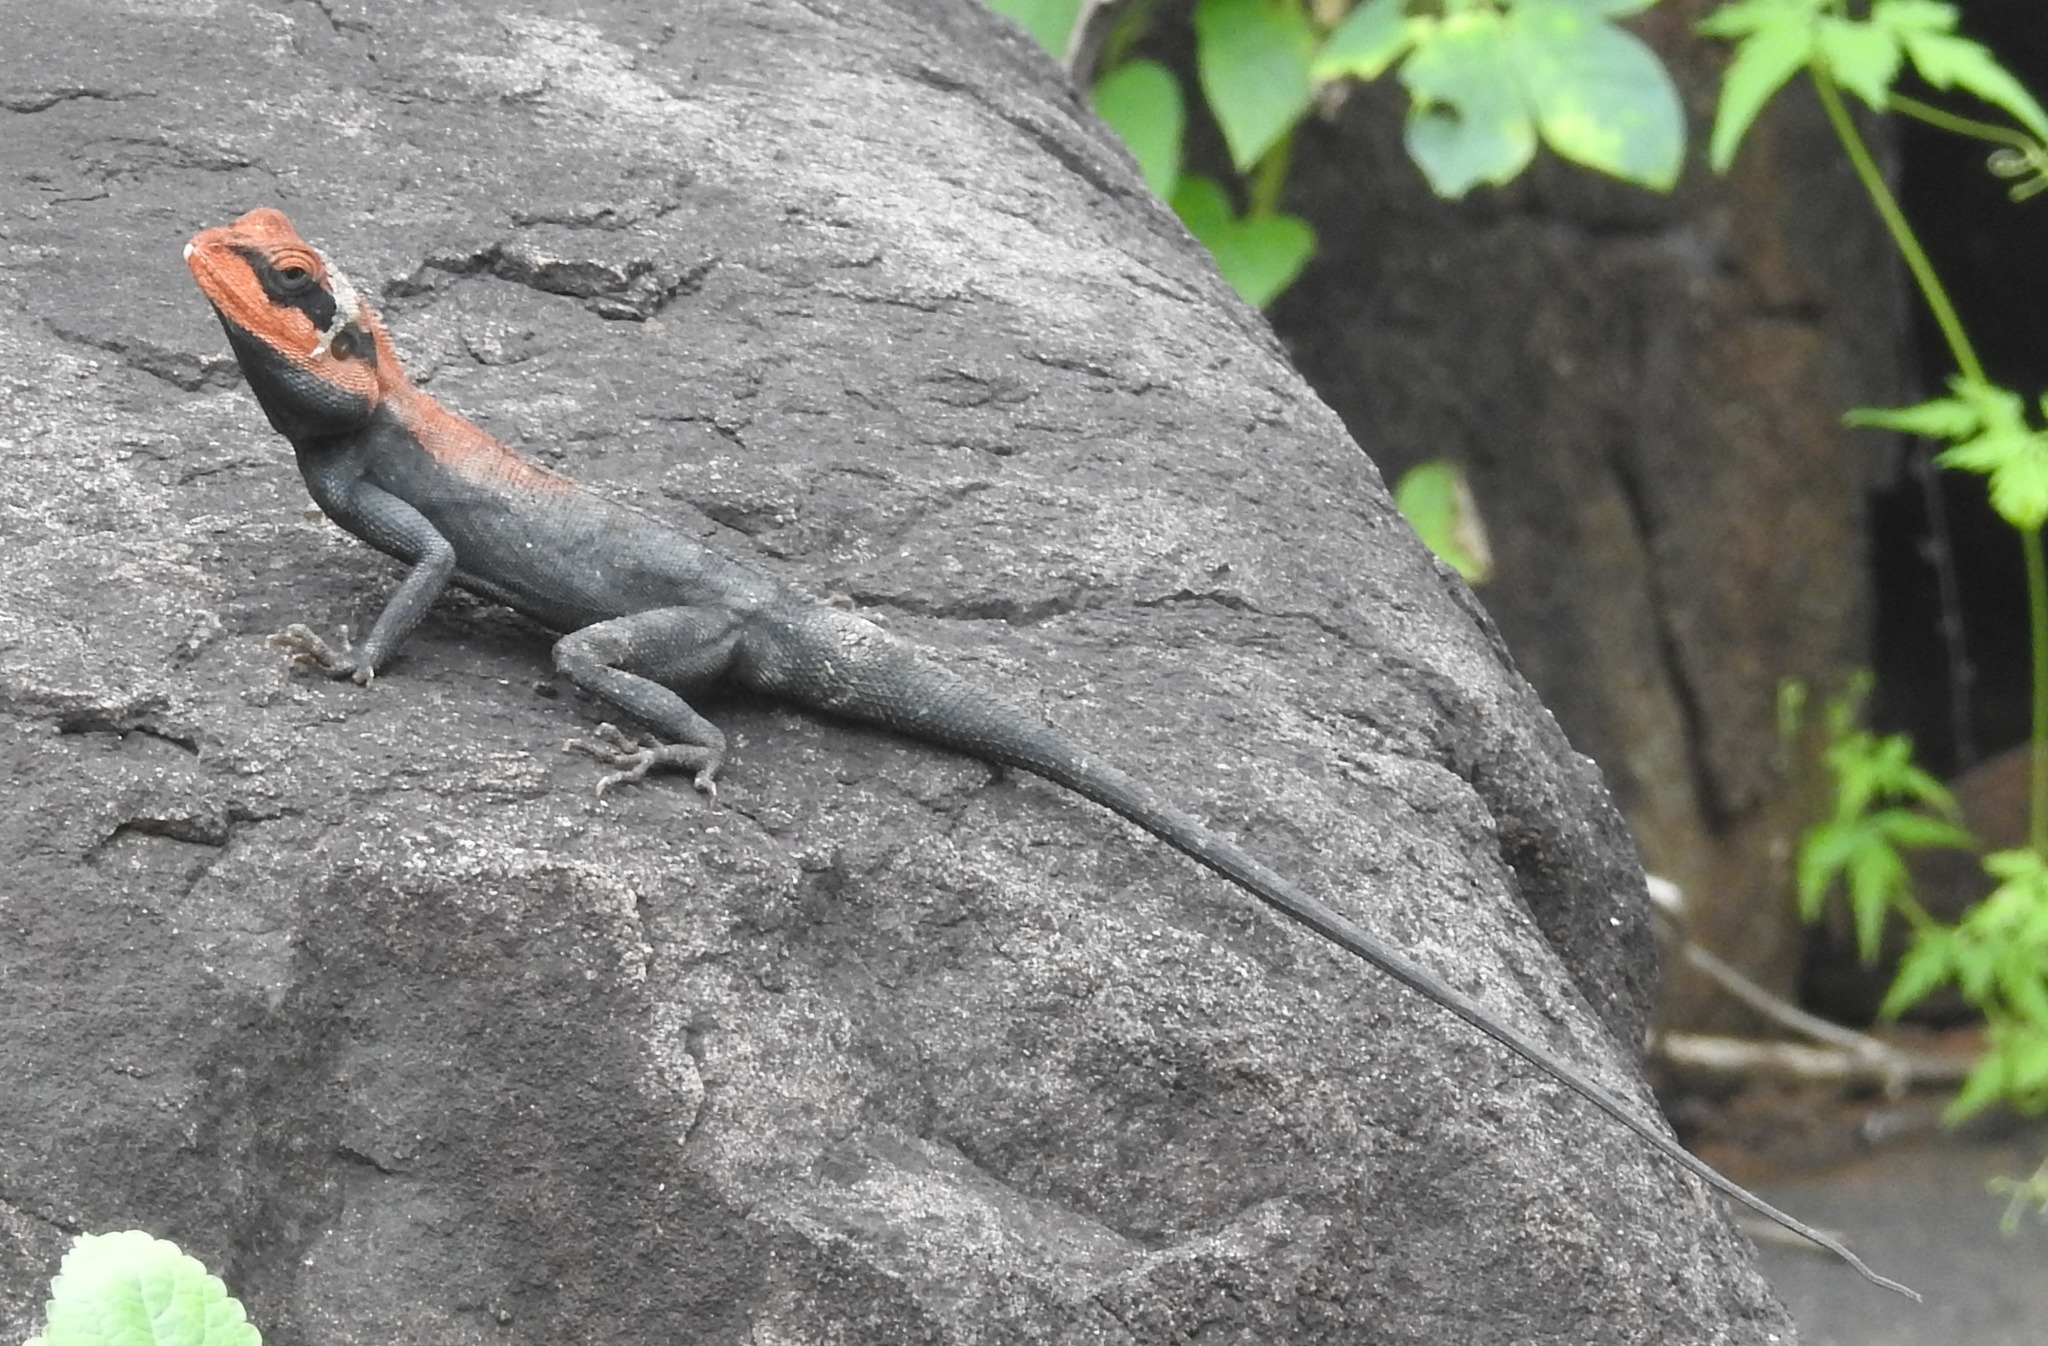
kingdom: Animalia
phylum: Chordata
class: Squamata
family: Agamidae
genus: Psammophilus
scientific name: Psammophilus dorsalis
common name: South indian rock agama
